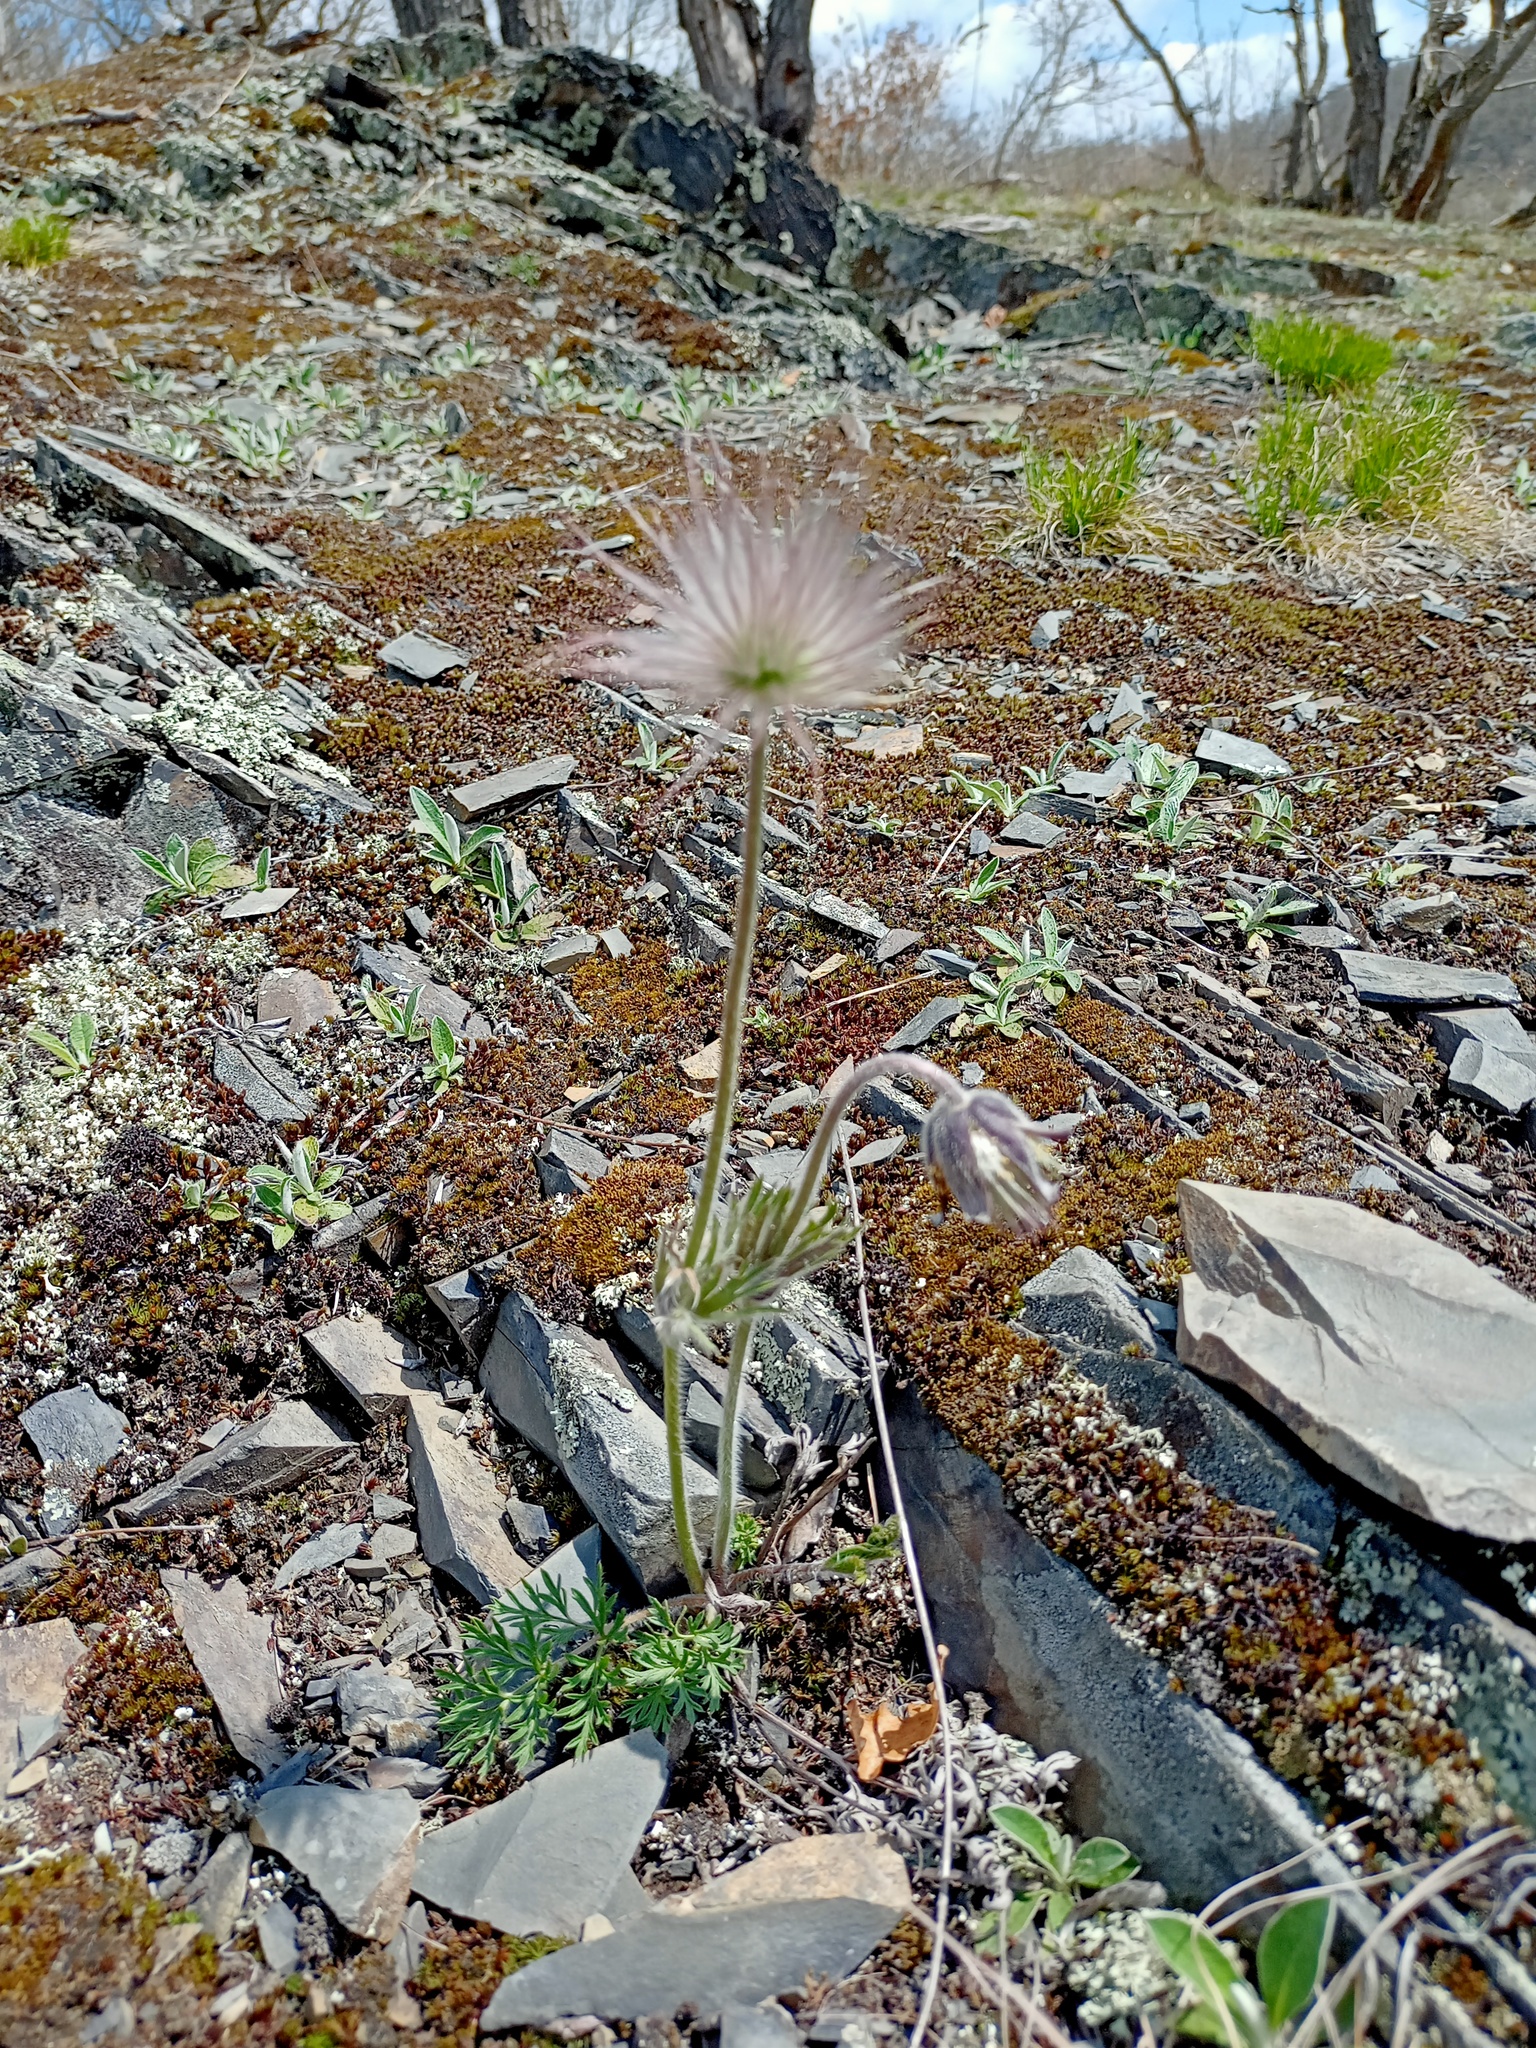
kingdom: Plantae
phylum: Tracheophyta
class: Magnoliopsida
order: Ranunculales
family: Ranunculaceae
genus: Pulsatilla
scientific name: Pulsatilla pratensis
